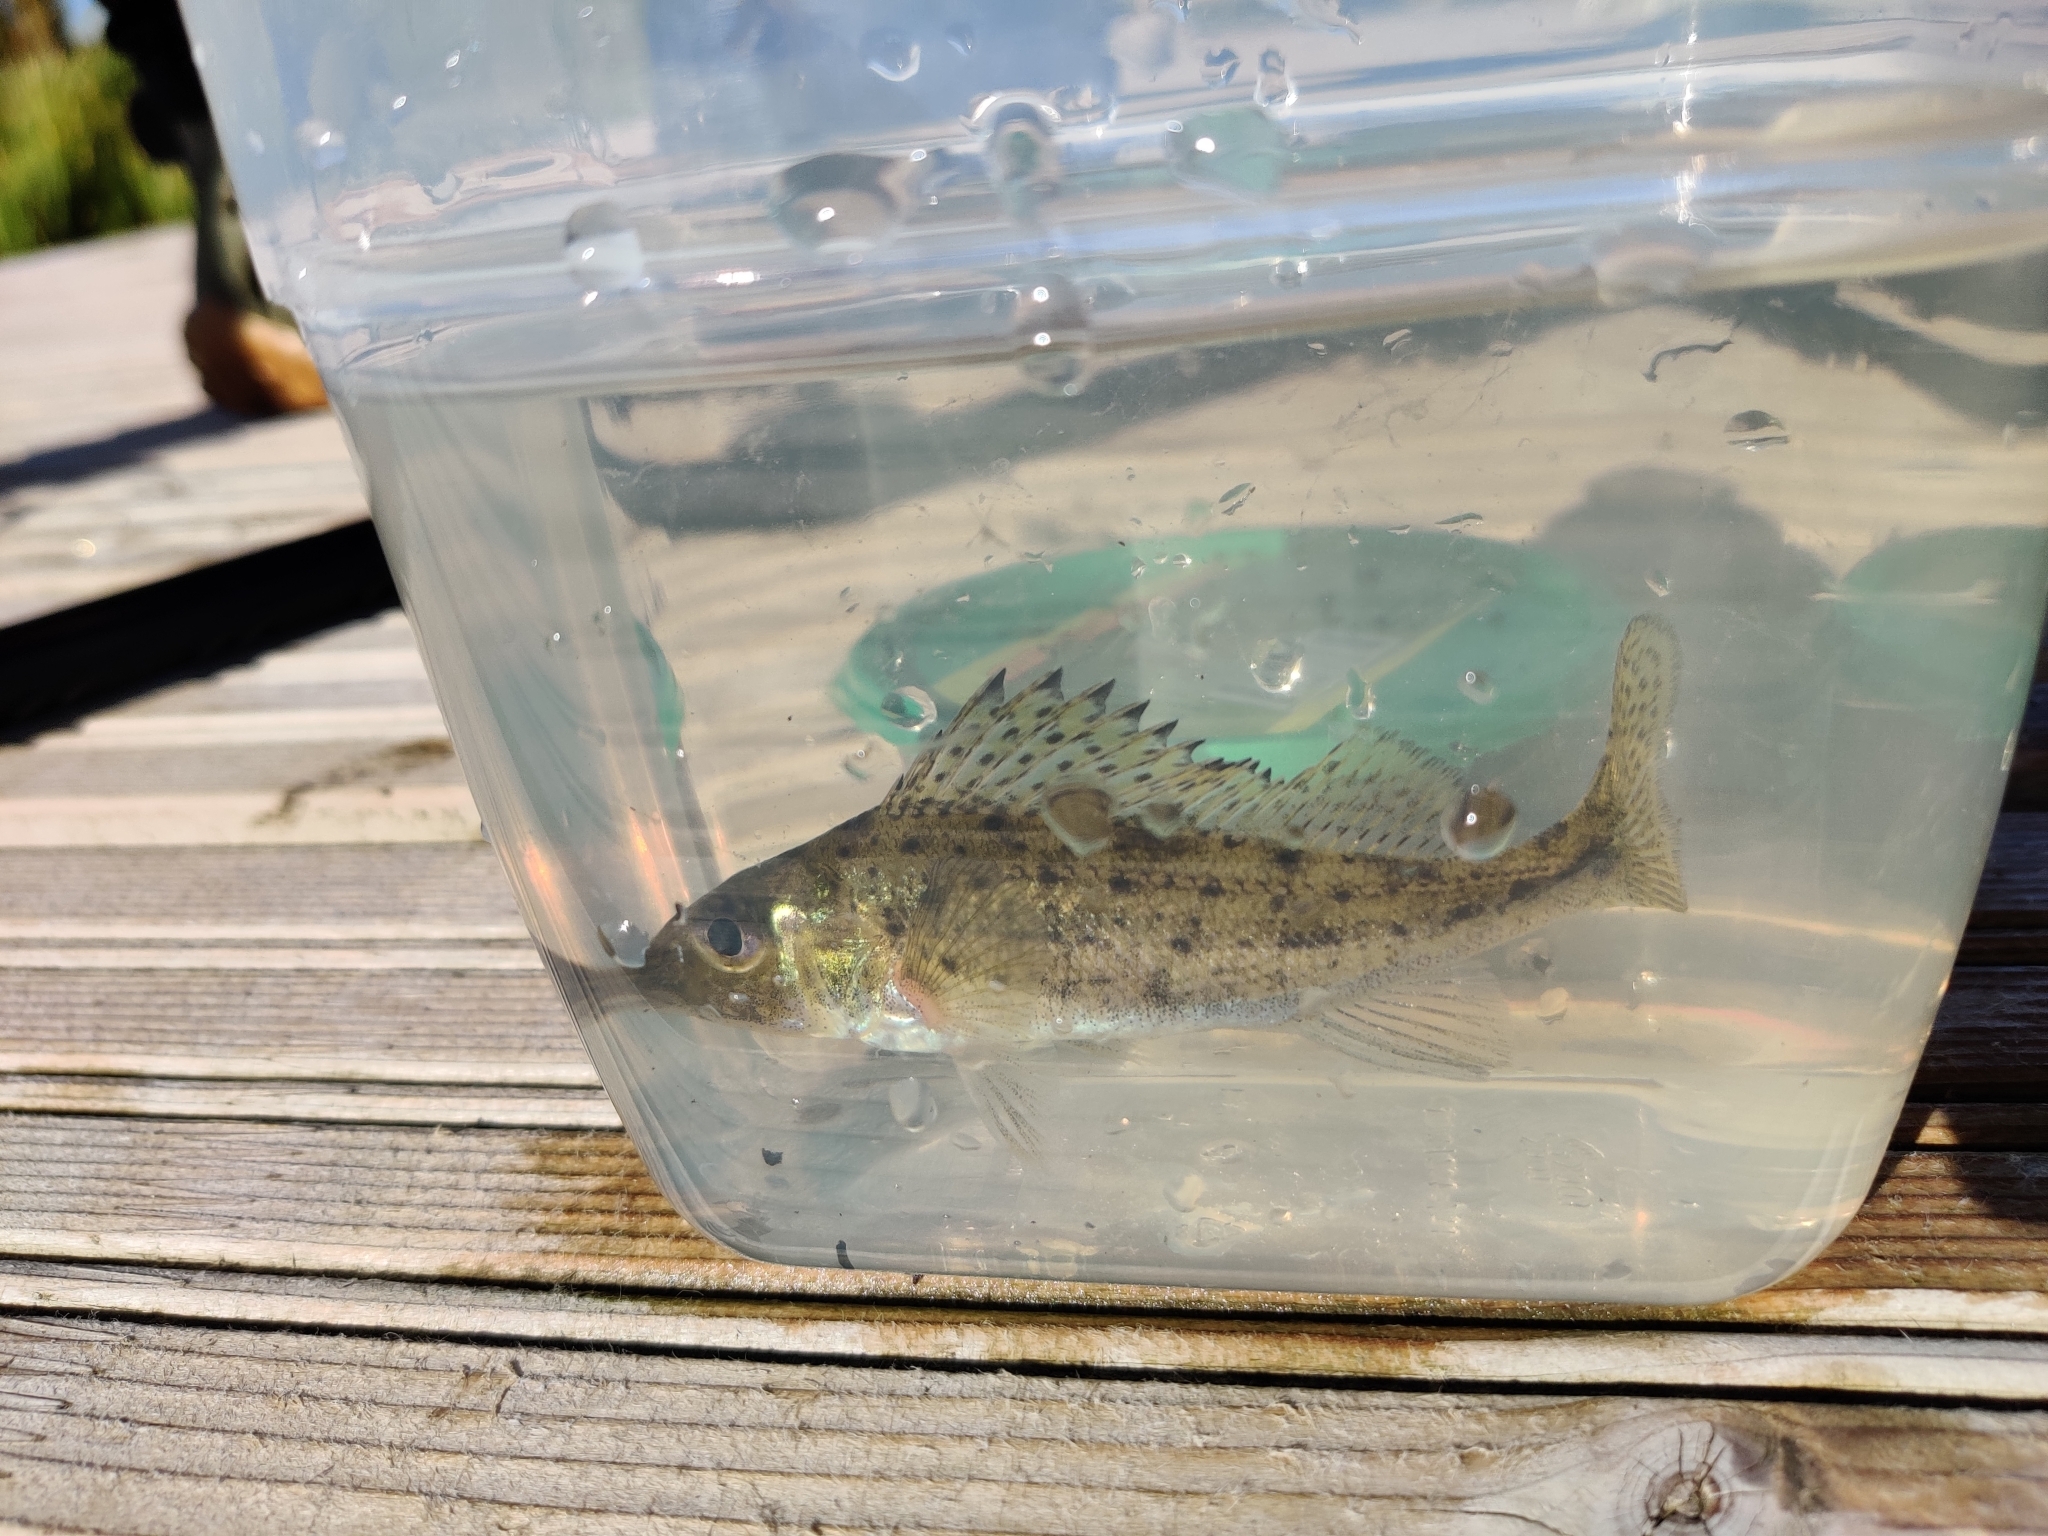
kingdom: Animalia
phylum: Chordata
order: Perciformes
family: Percidae
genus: Gymnocephalus
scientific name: Gymnocephalus cernua
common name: Ruffe
